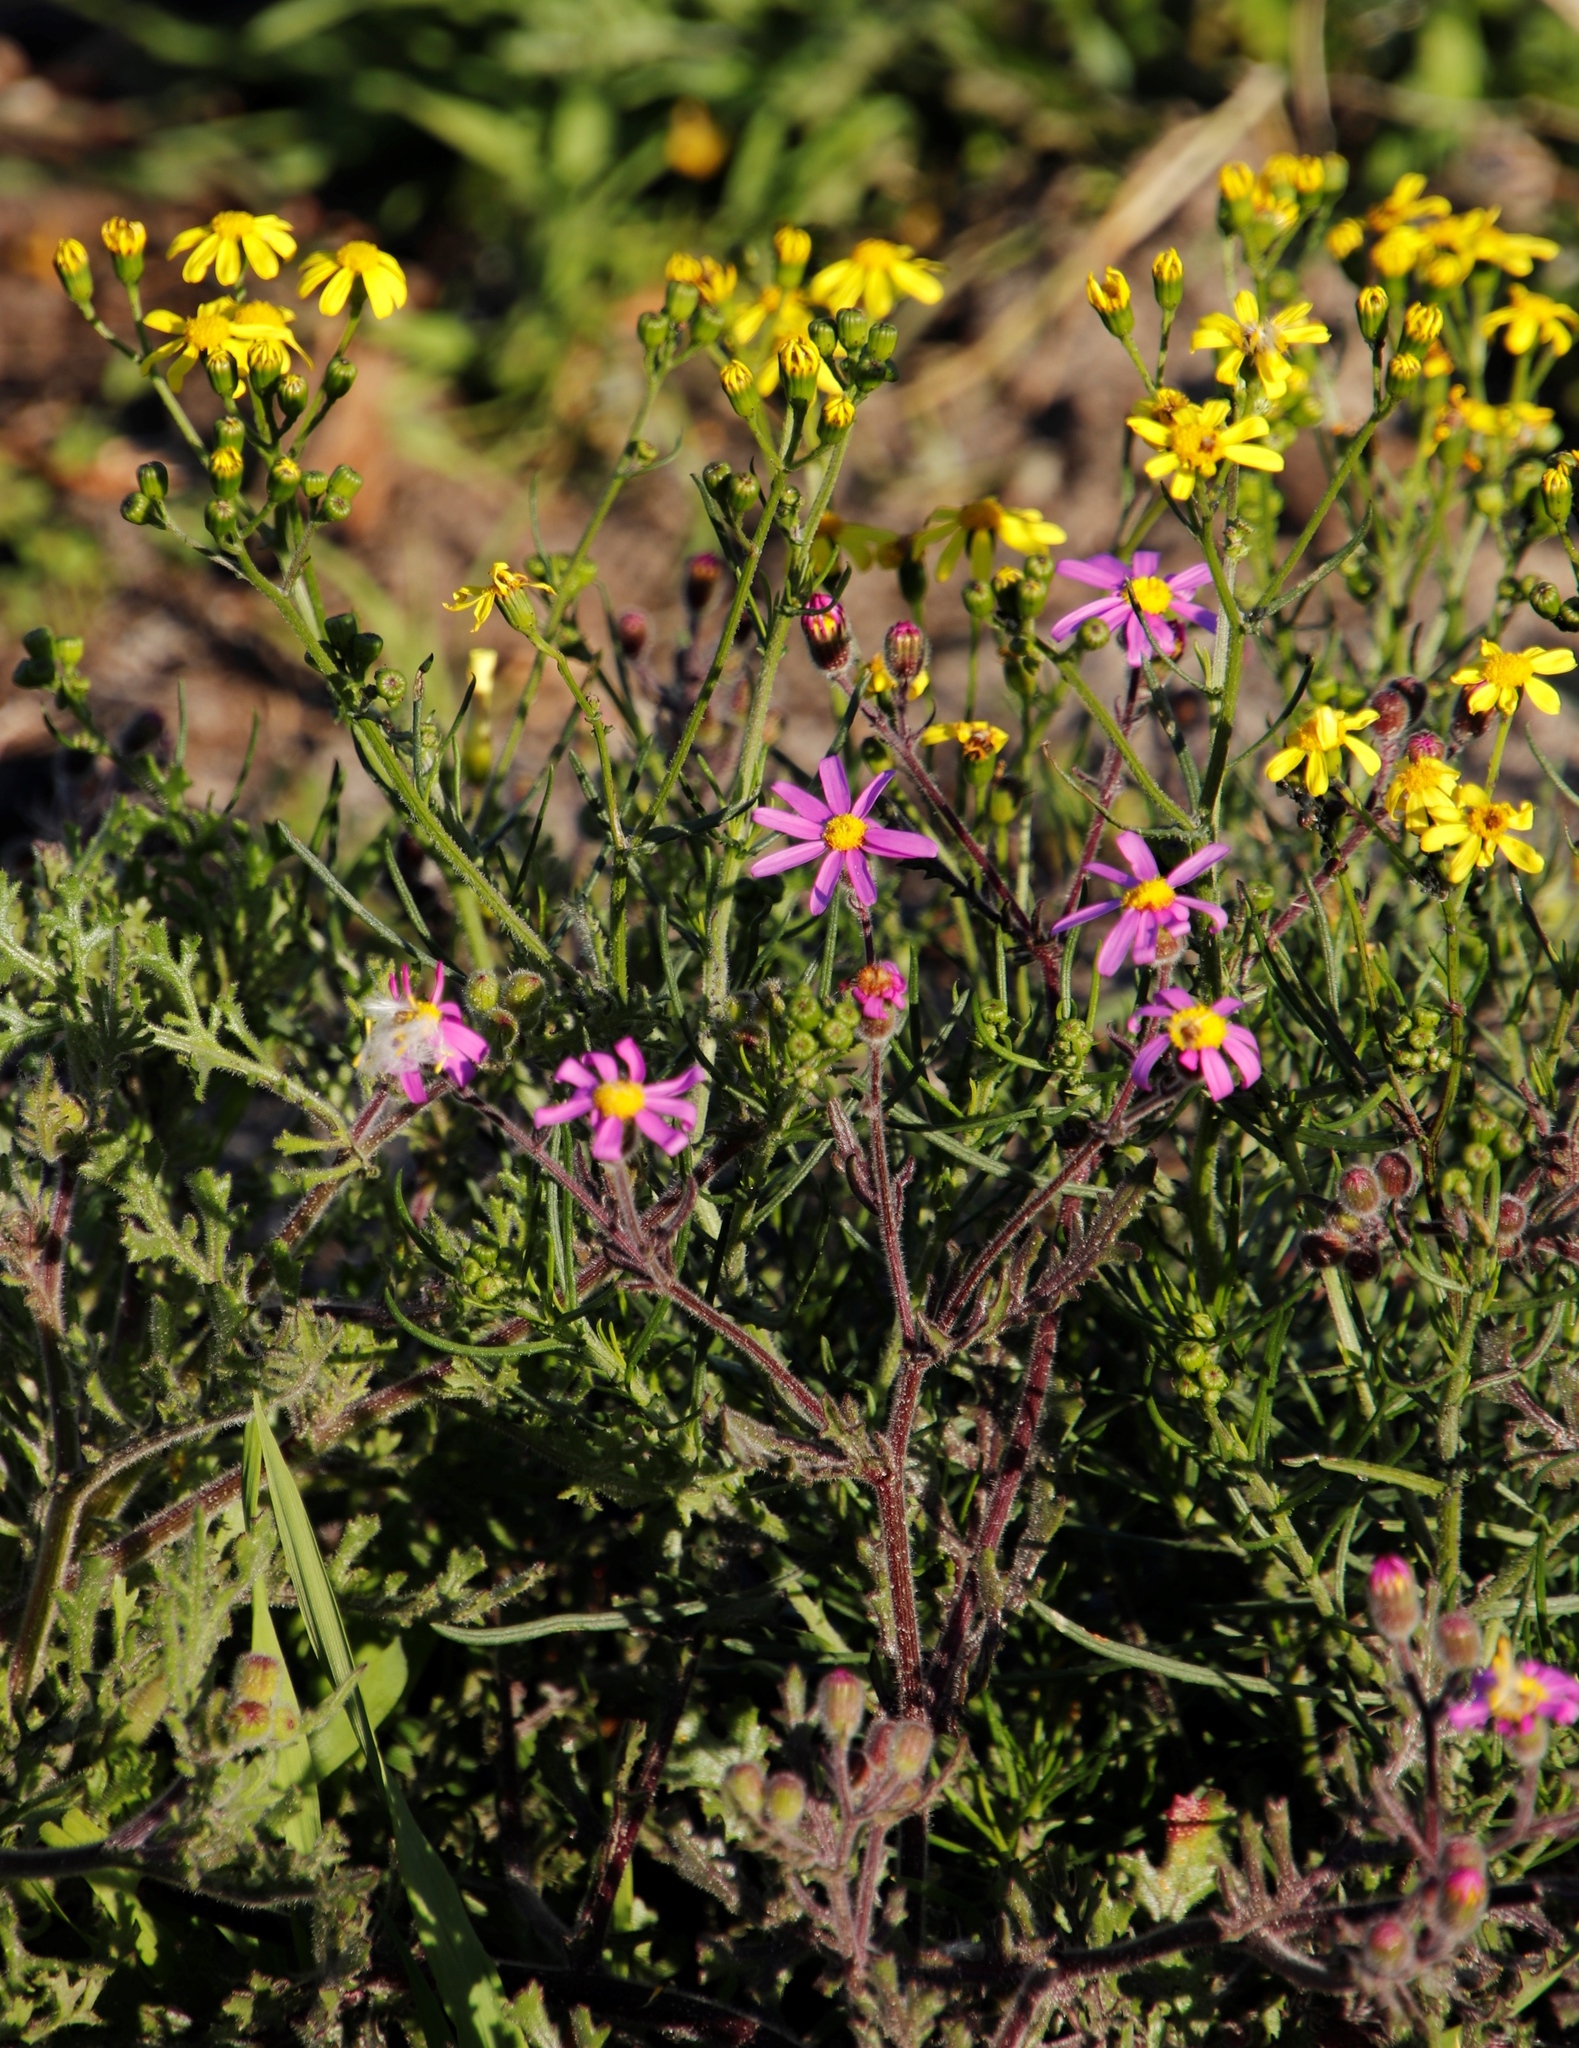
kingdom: Plantae
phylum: Tracheophyta
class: Magnoliopsida
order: Asterales
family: Asteraceae
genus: Senecio
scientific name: Senecio arenarius
